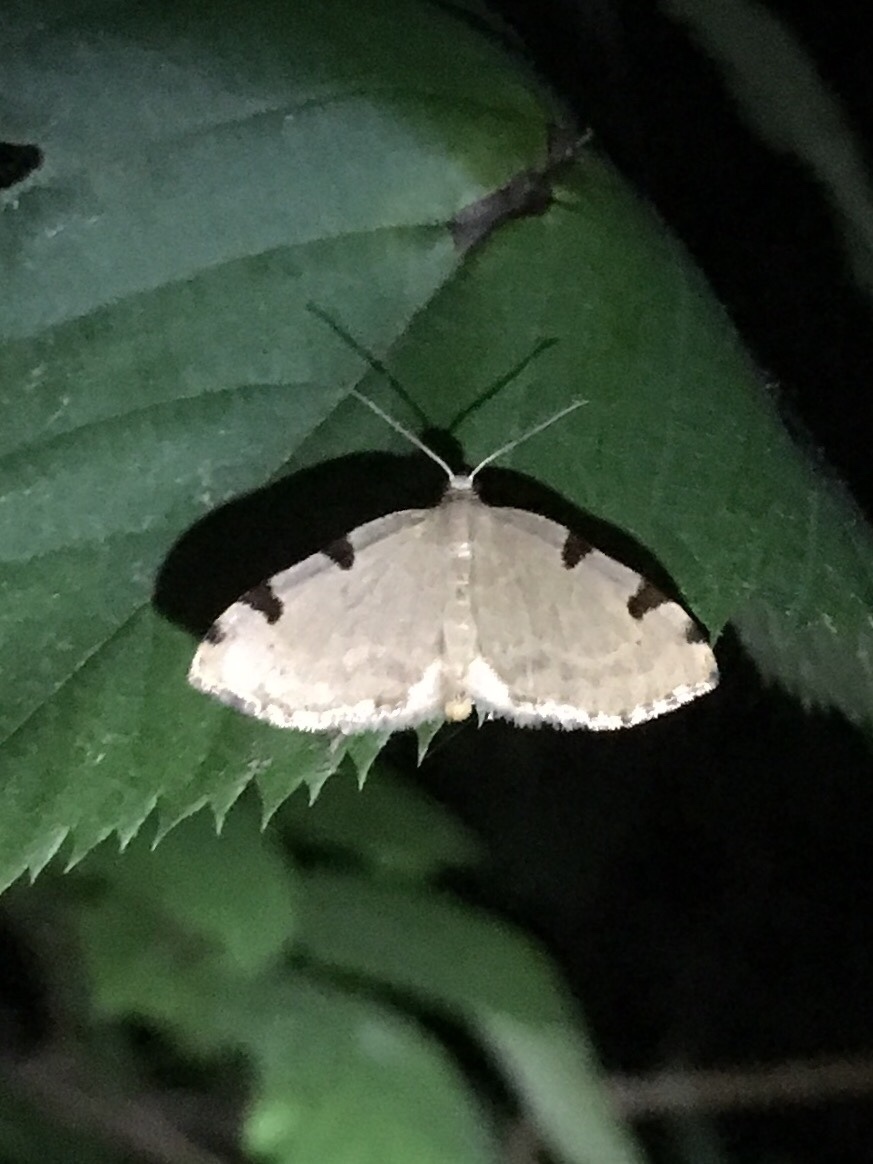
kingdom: Animalia
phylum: Arthropoda
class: Insecta
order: Lepidoptera
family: Geometridae
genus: Heterophleps
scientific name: Heterophleps triguttaria
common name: Three-spotted fillip
